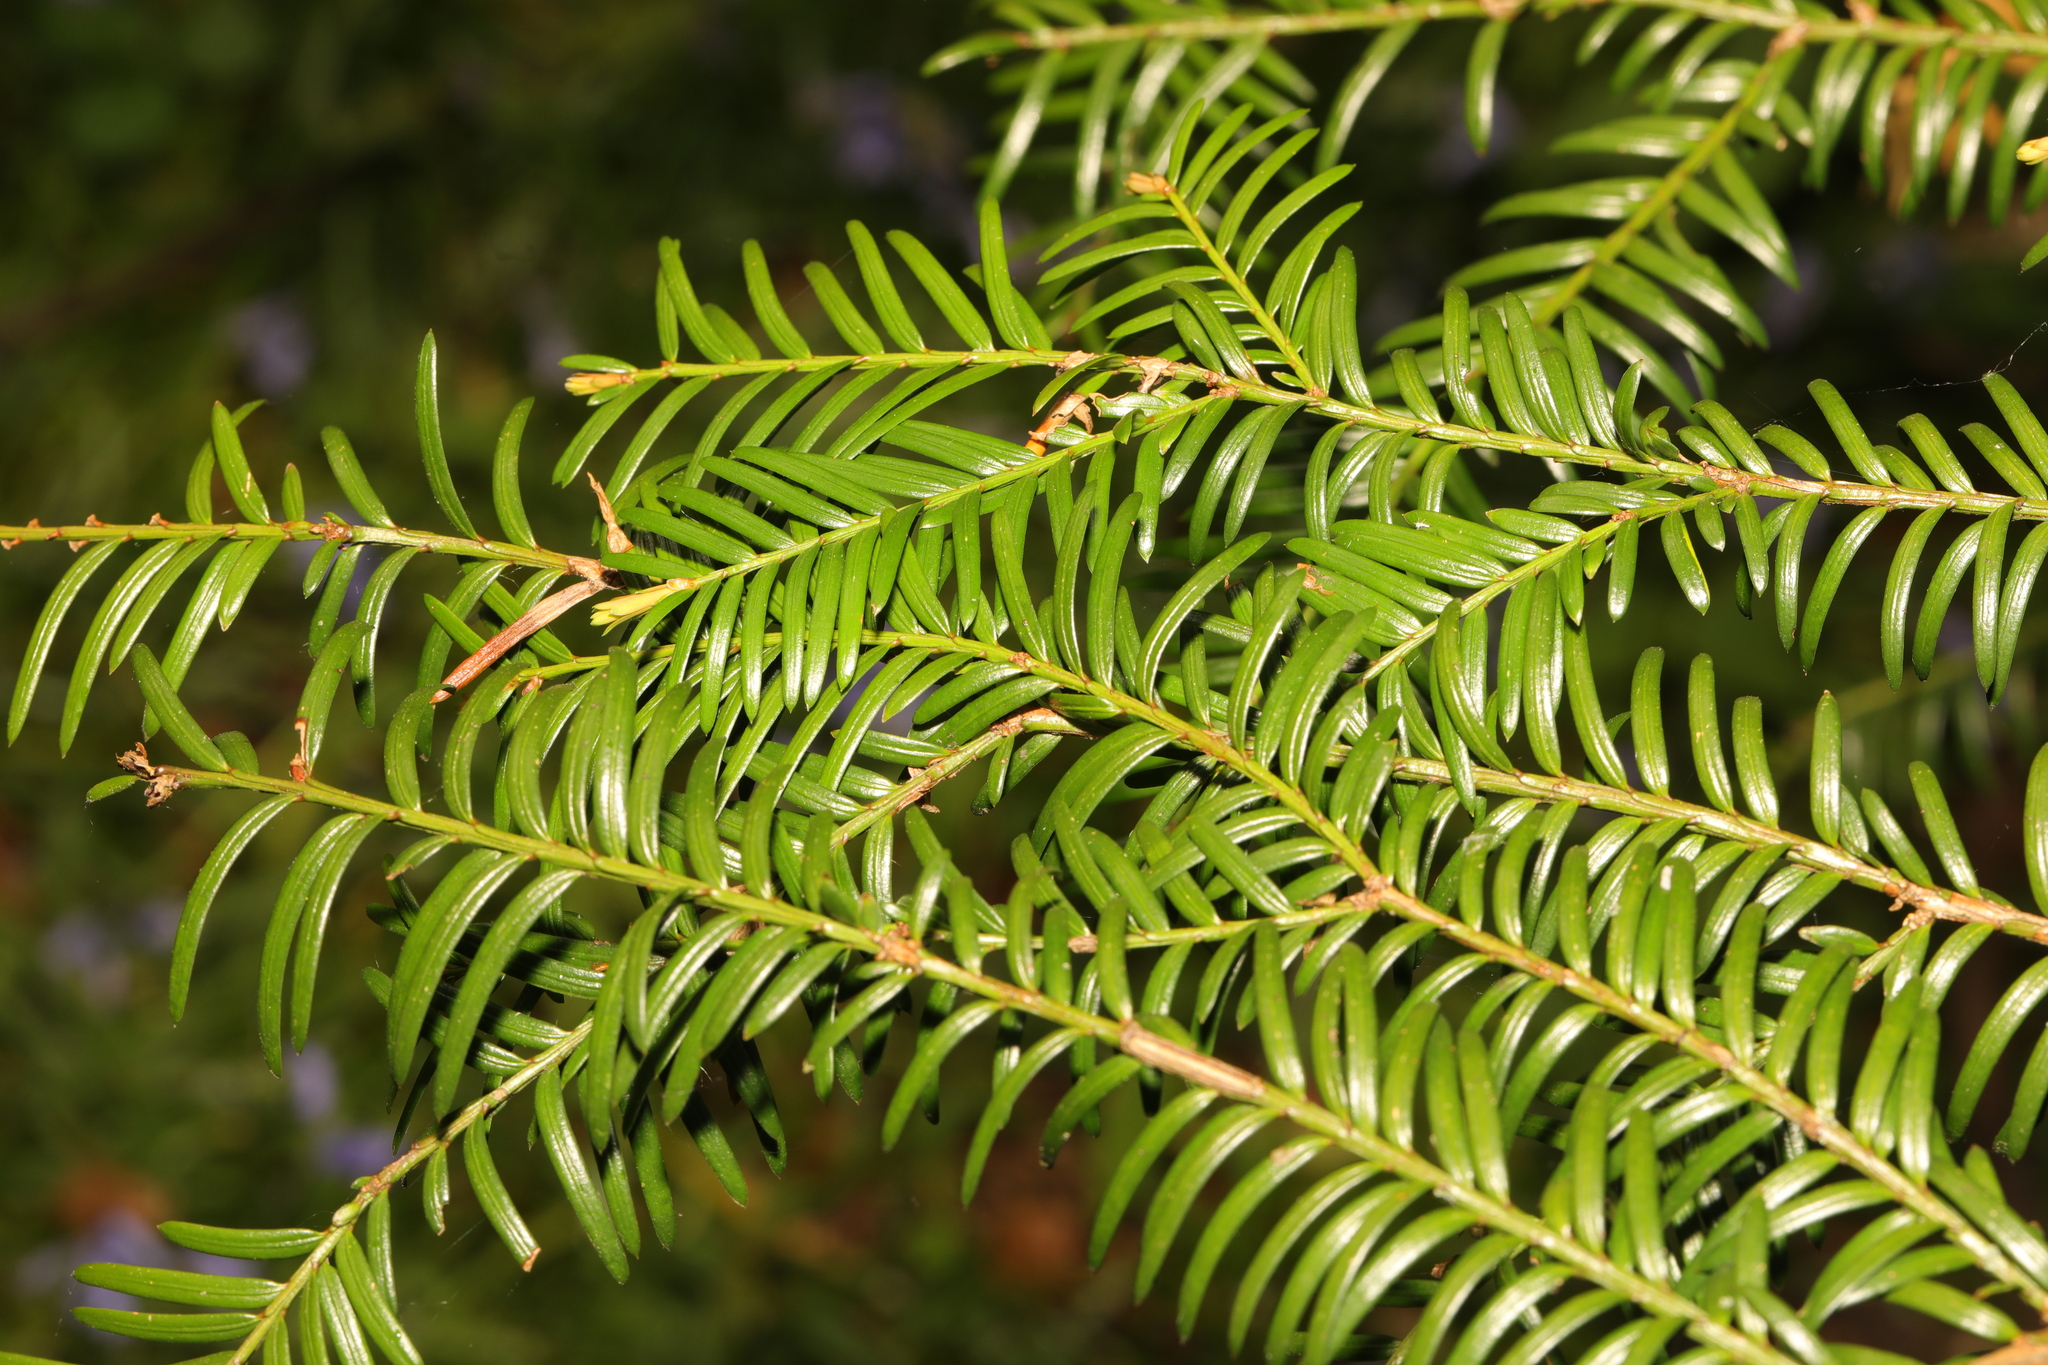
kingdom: Plantae
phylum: Tracheophyta
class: Pinopsida
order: Pinales
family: Taxaceae
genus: Taxus
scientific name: Taxus baccata
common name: Yew
